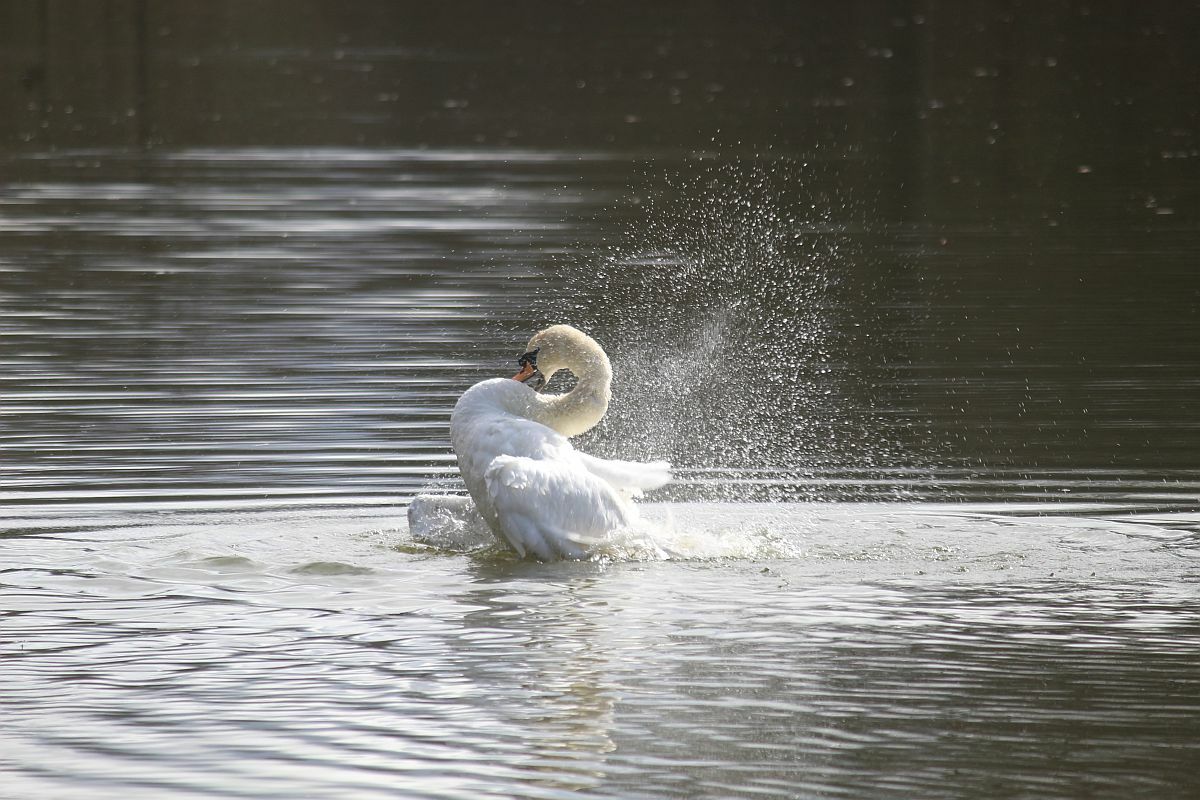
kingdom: Animalia
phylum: Chordata
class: Aves
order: Anseriformes
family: Anatidae
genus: Cygnus
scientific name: Cygnus olor
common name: Mute swan
